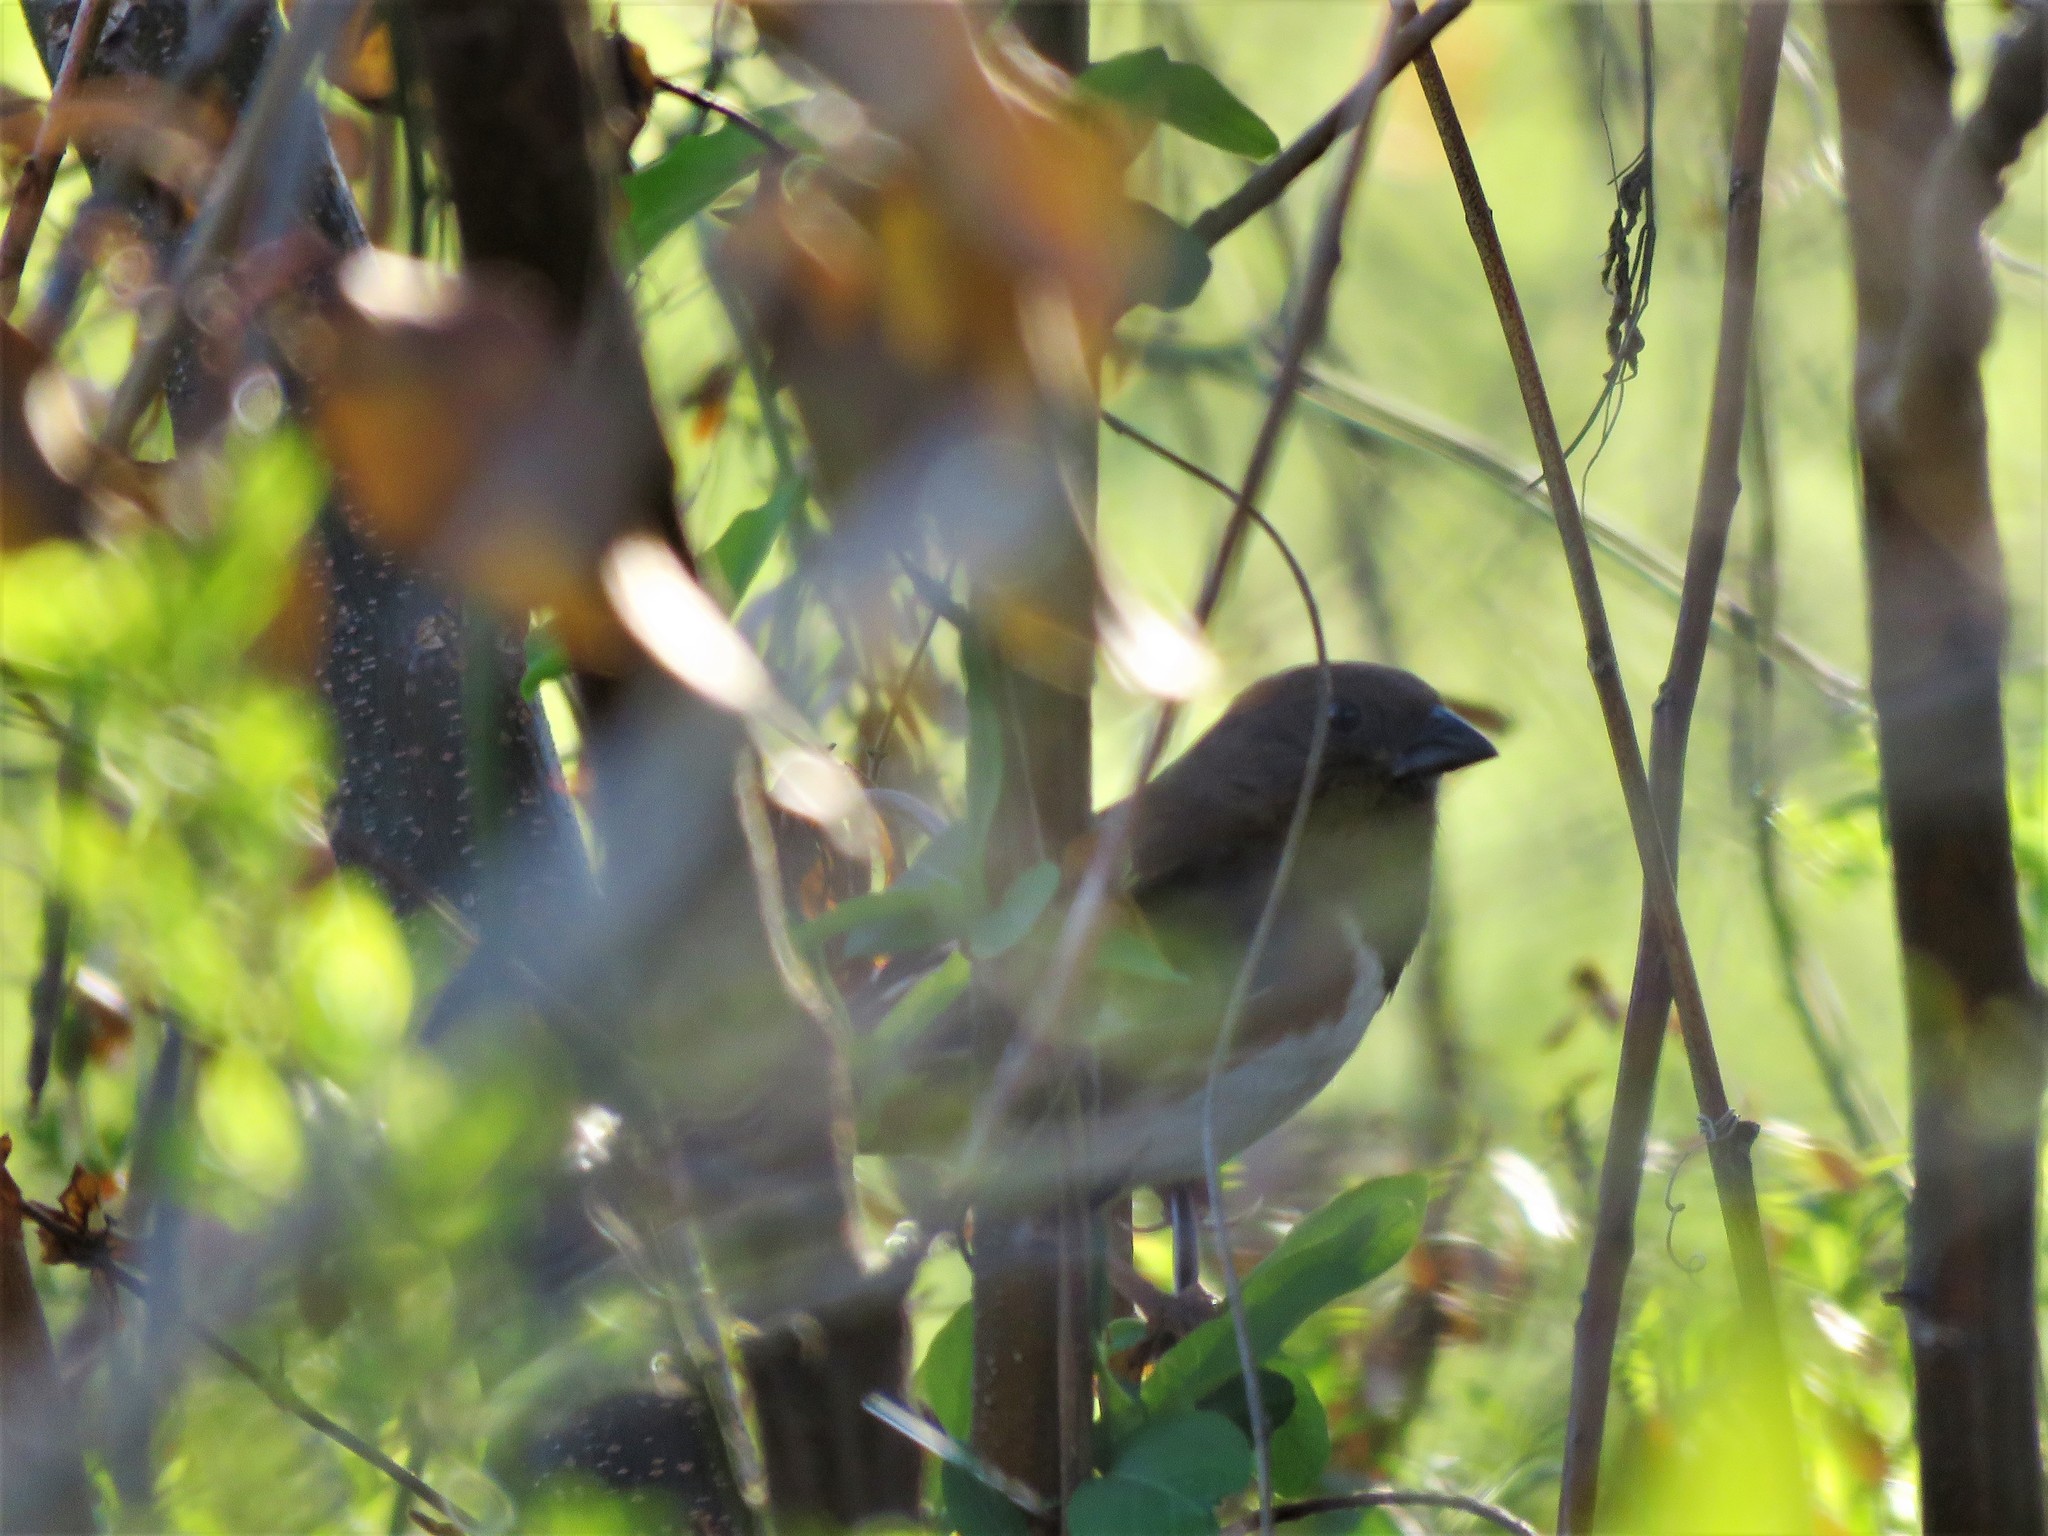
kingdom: Animalia
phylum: Chordata
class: Aves
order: Passeriformes
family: Passerellidae
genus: Pipilo
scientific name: Pipilo erythrophthalmus
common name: Eastern towhee
